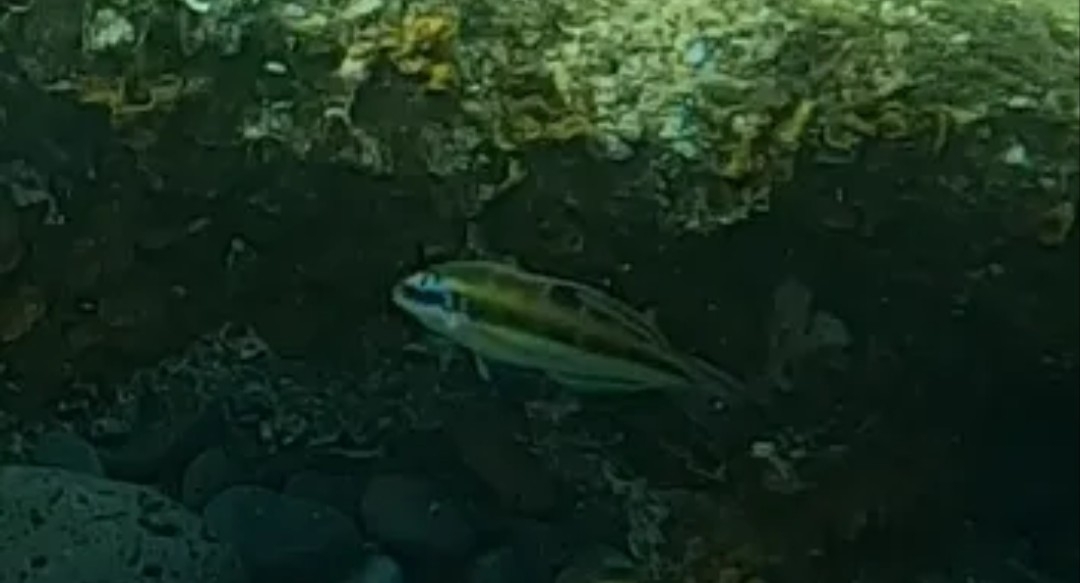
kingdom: Animalia
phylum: Chordata
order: Perciformes
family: Labridae
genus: Thalassoma
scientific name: Thalassoma pavo
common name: Ornate wrasse
